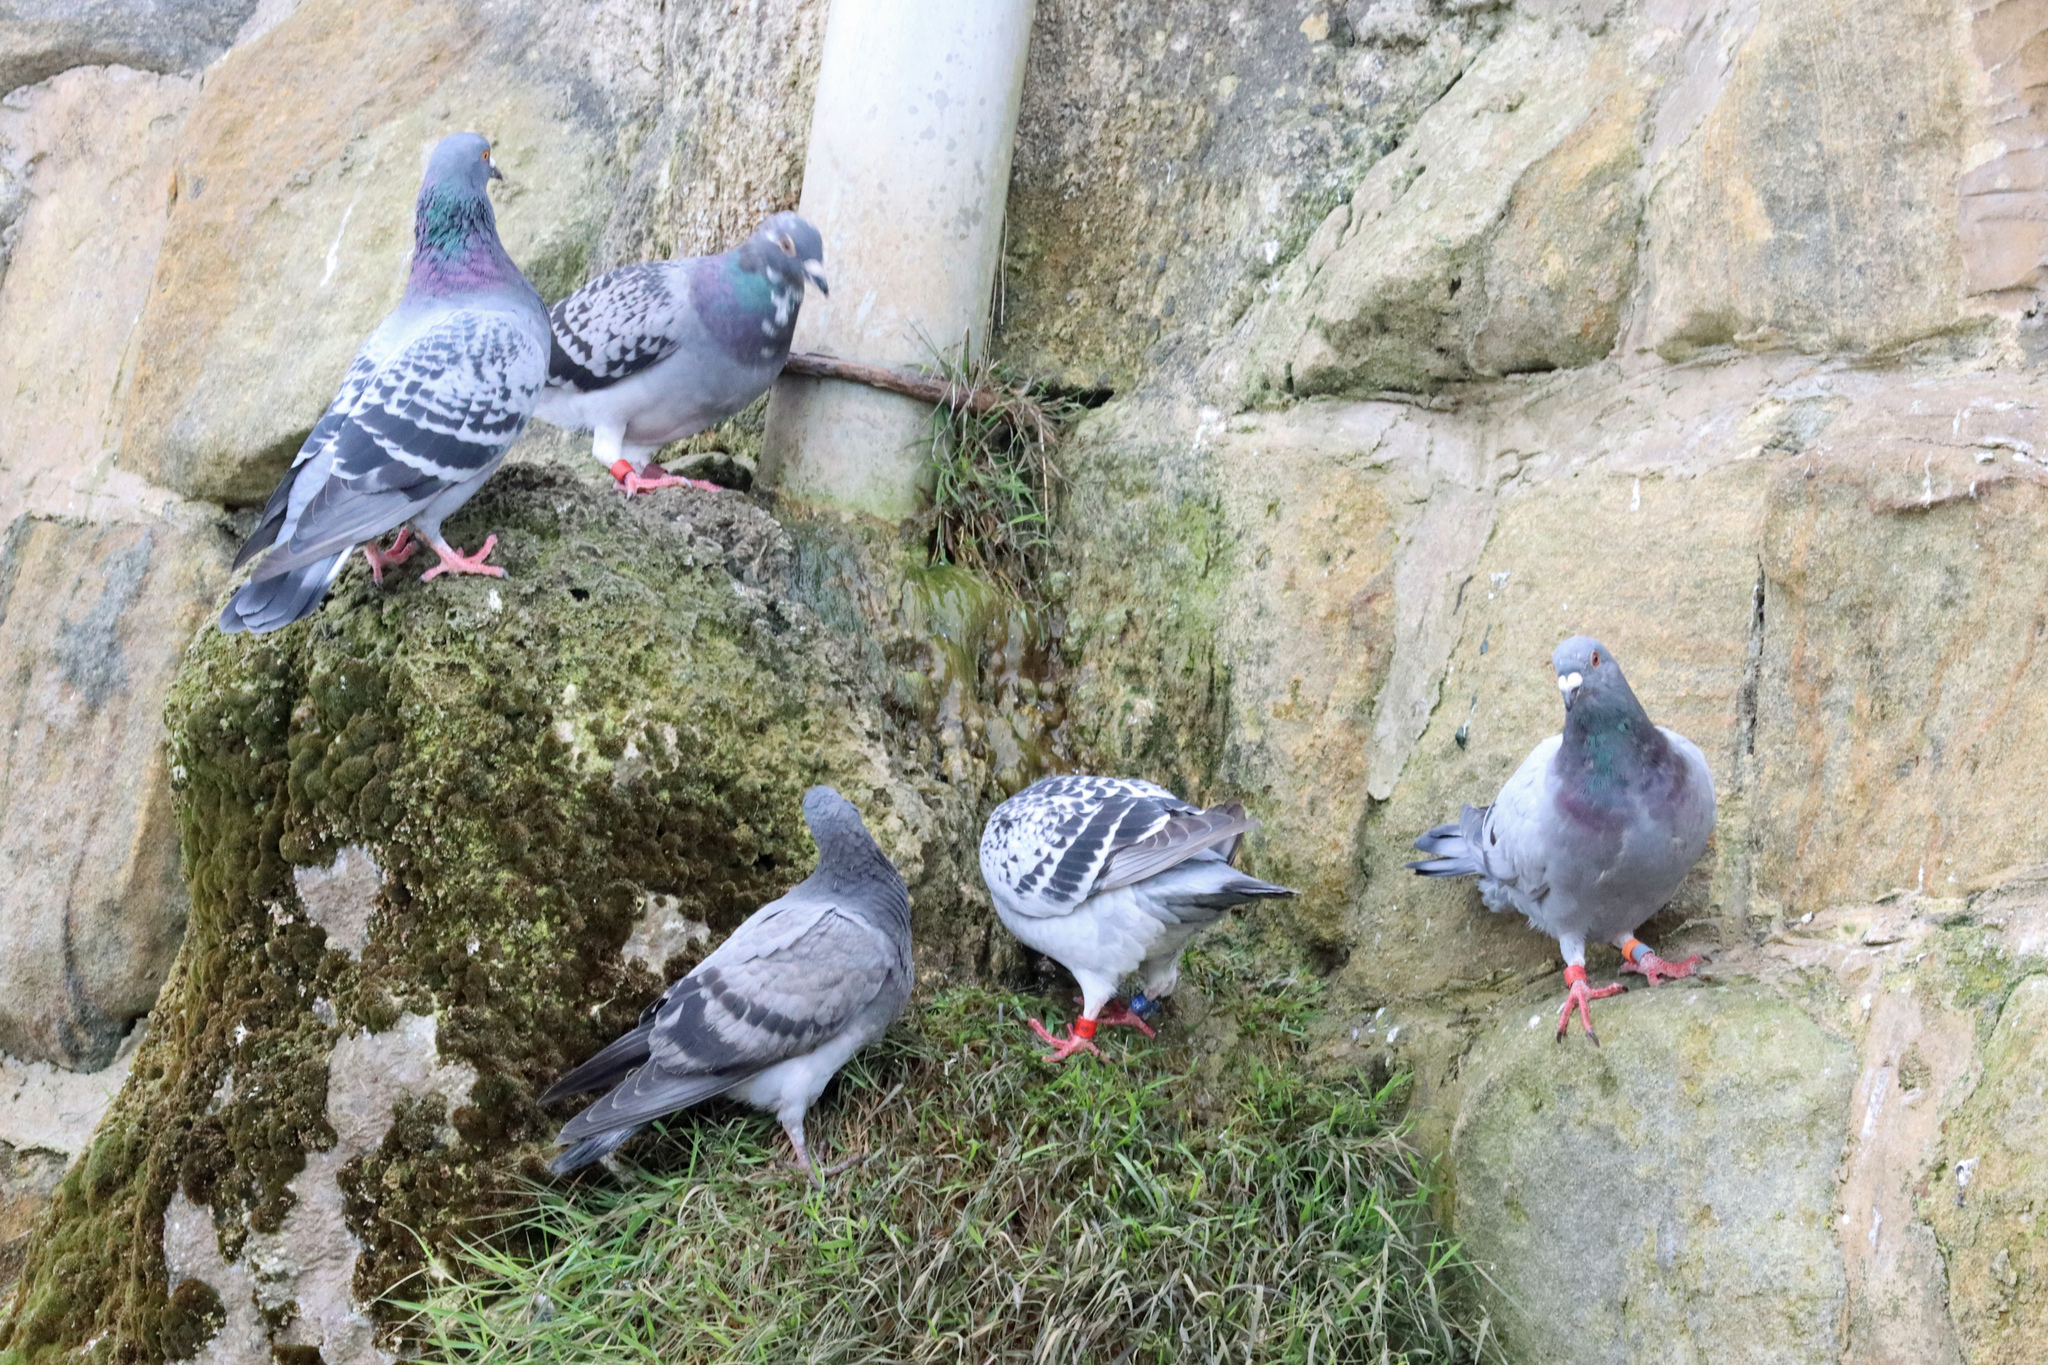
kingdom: Animalia
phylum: Chordata
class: Aves
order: Columbiformes
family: Columbidae
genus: Columba
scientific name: Columba livia
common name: Rock pigeon
